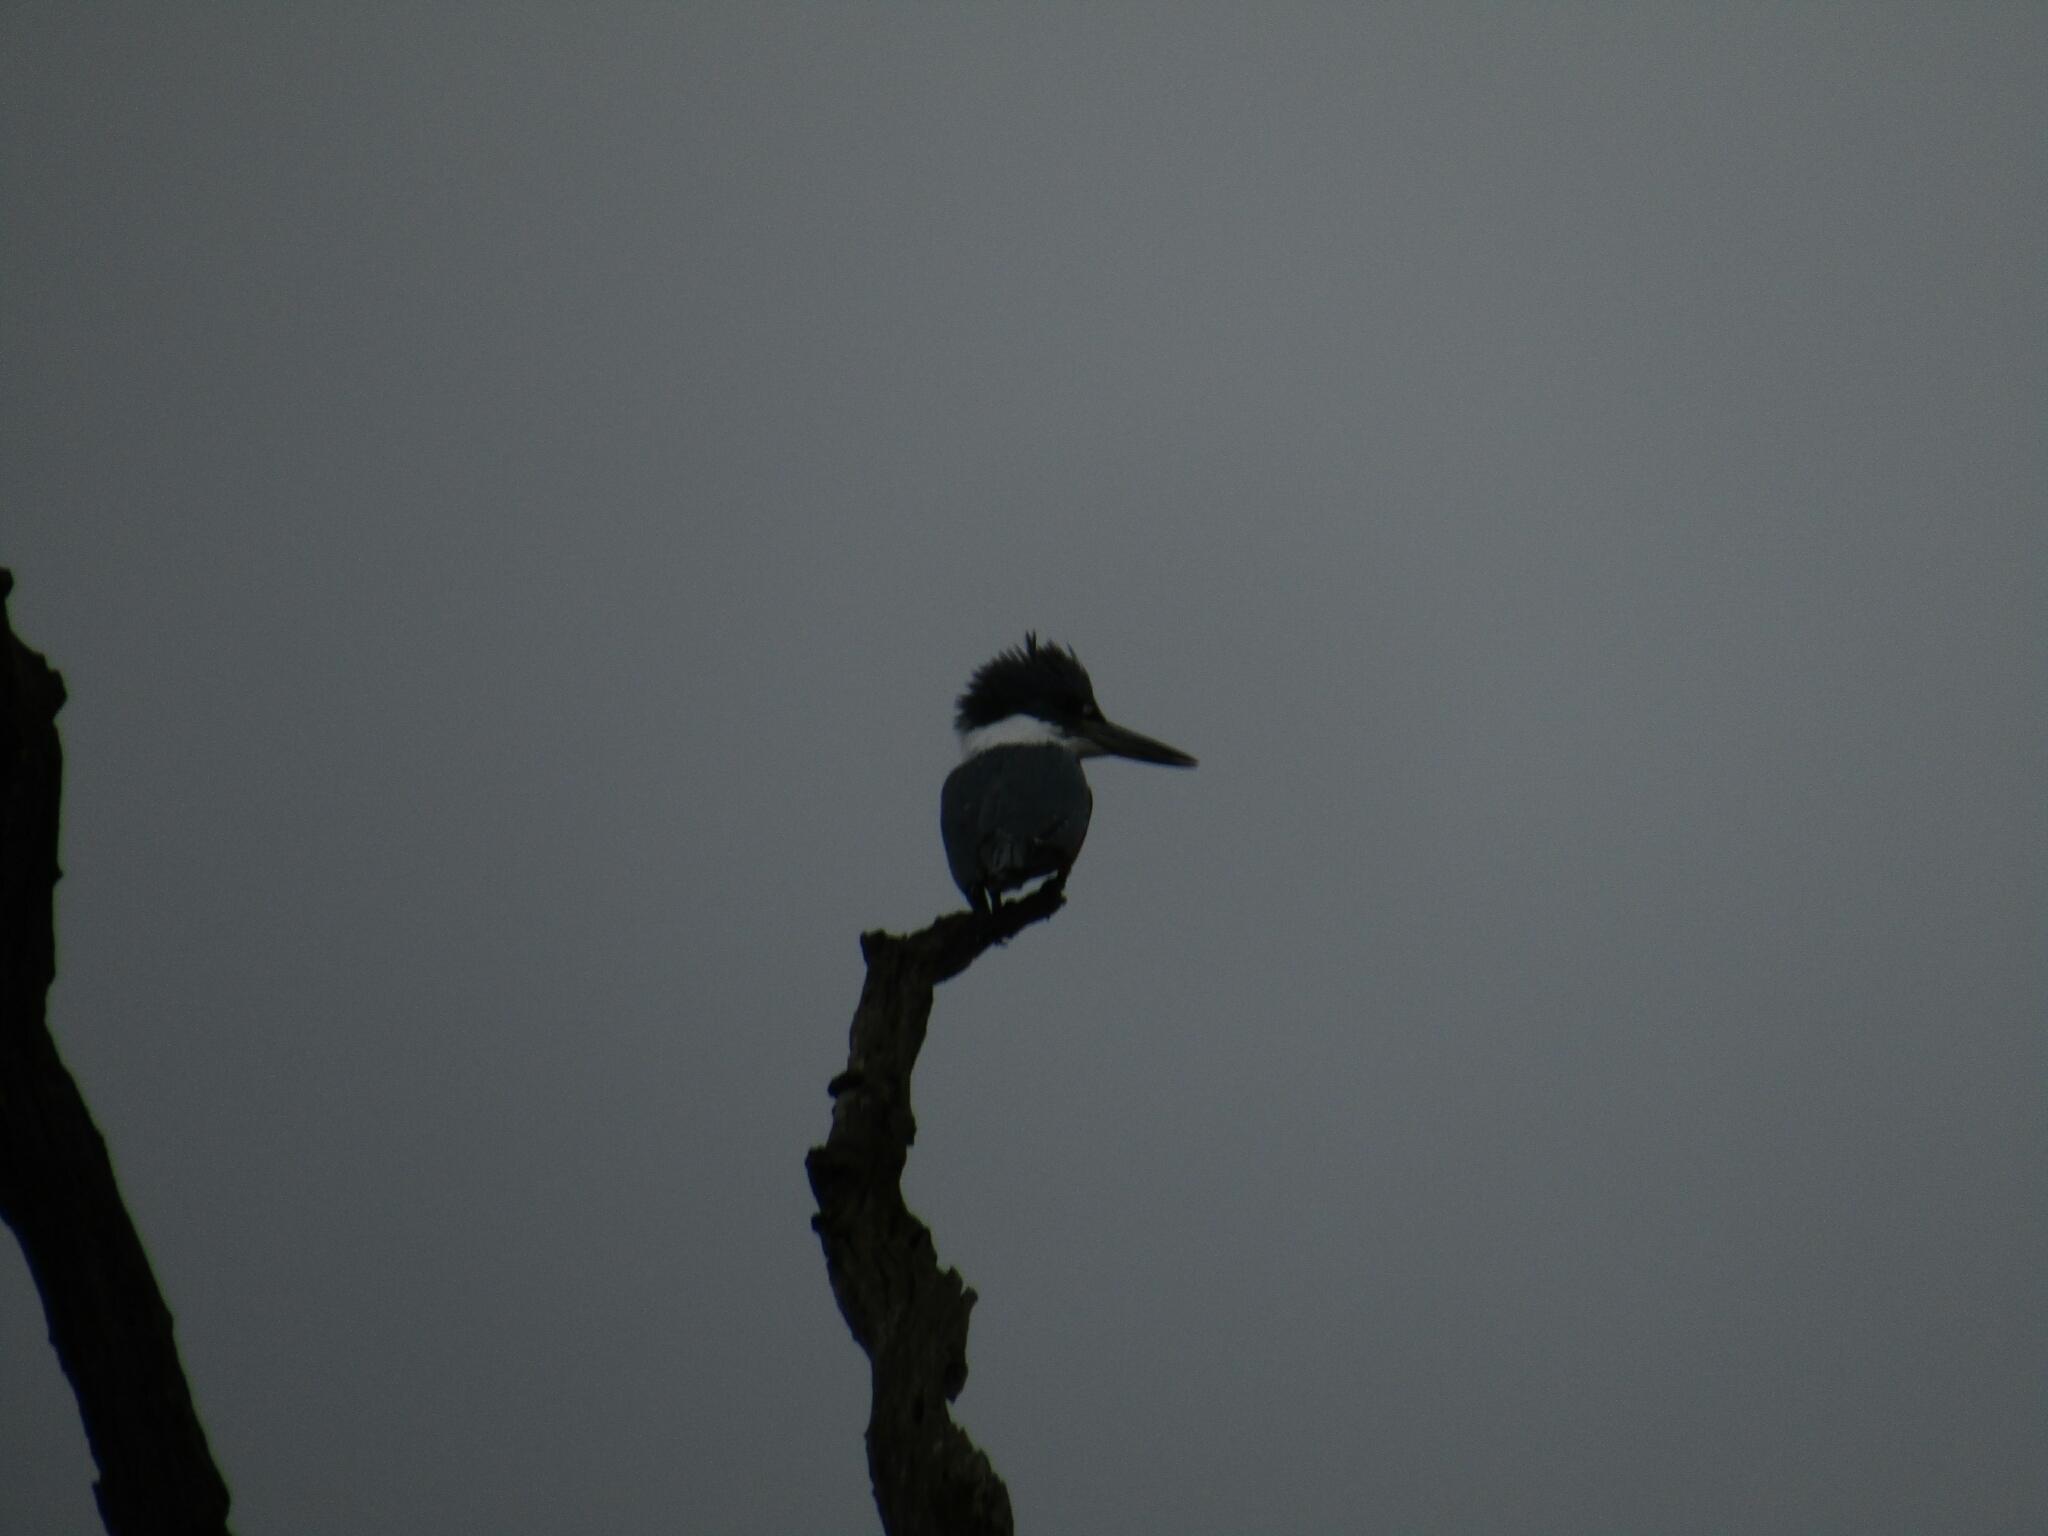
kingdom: Animalia
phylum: Chordata
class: Aves
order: Coraciiformes
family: Alcedinidae
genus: Megaceryle
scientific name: Megaceryle torquata
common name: Ringed kingfisher
